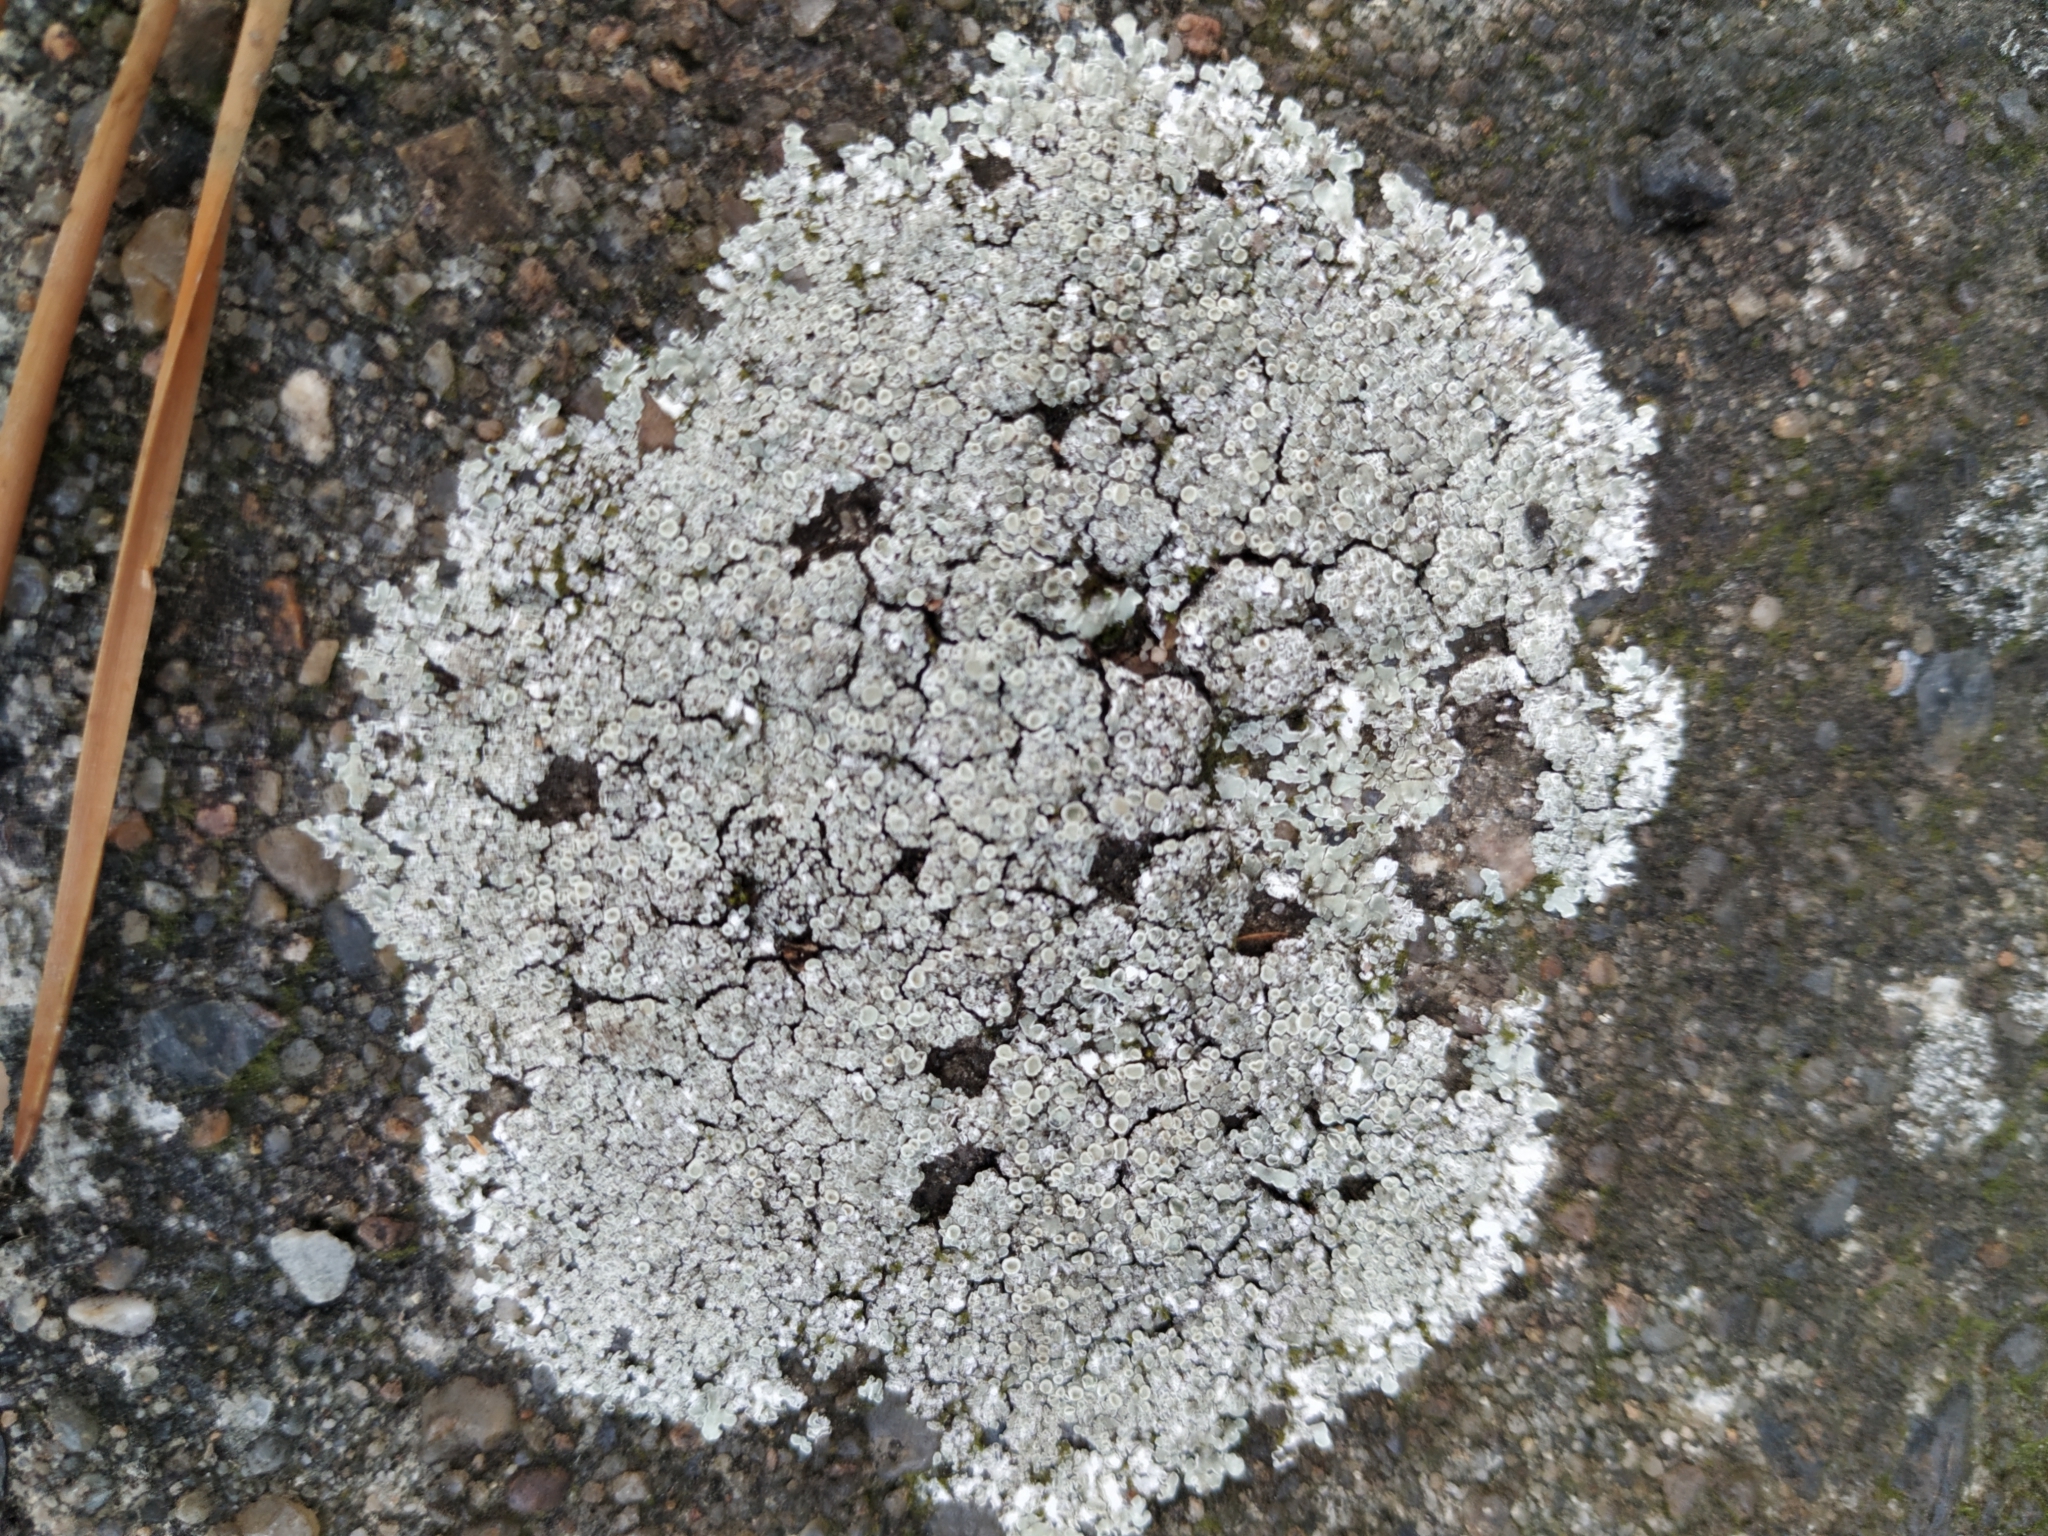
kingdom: Fungi
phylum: Ascomycota
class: Lecanoromycetes
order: Lecanorales
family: Lecanoraceae
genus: Protoparmeliopsis
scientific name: Protoparmeliopsis muralis
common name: Stonewall rim lichen
